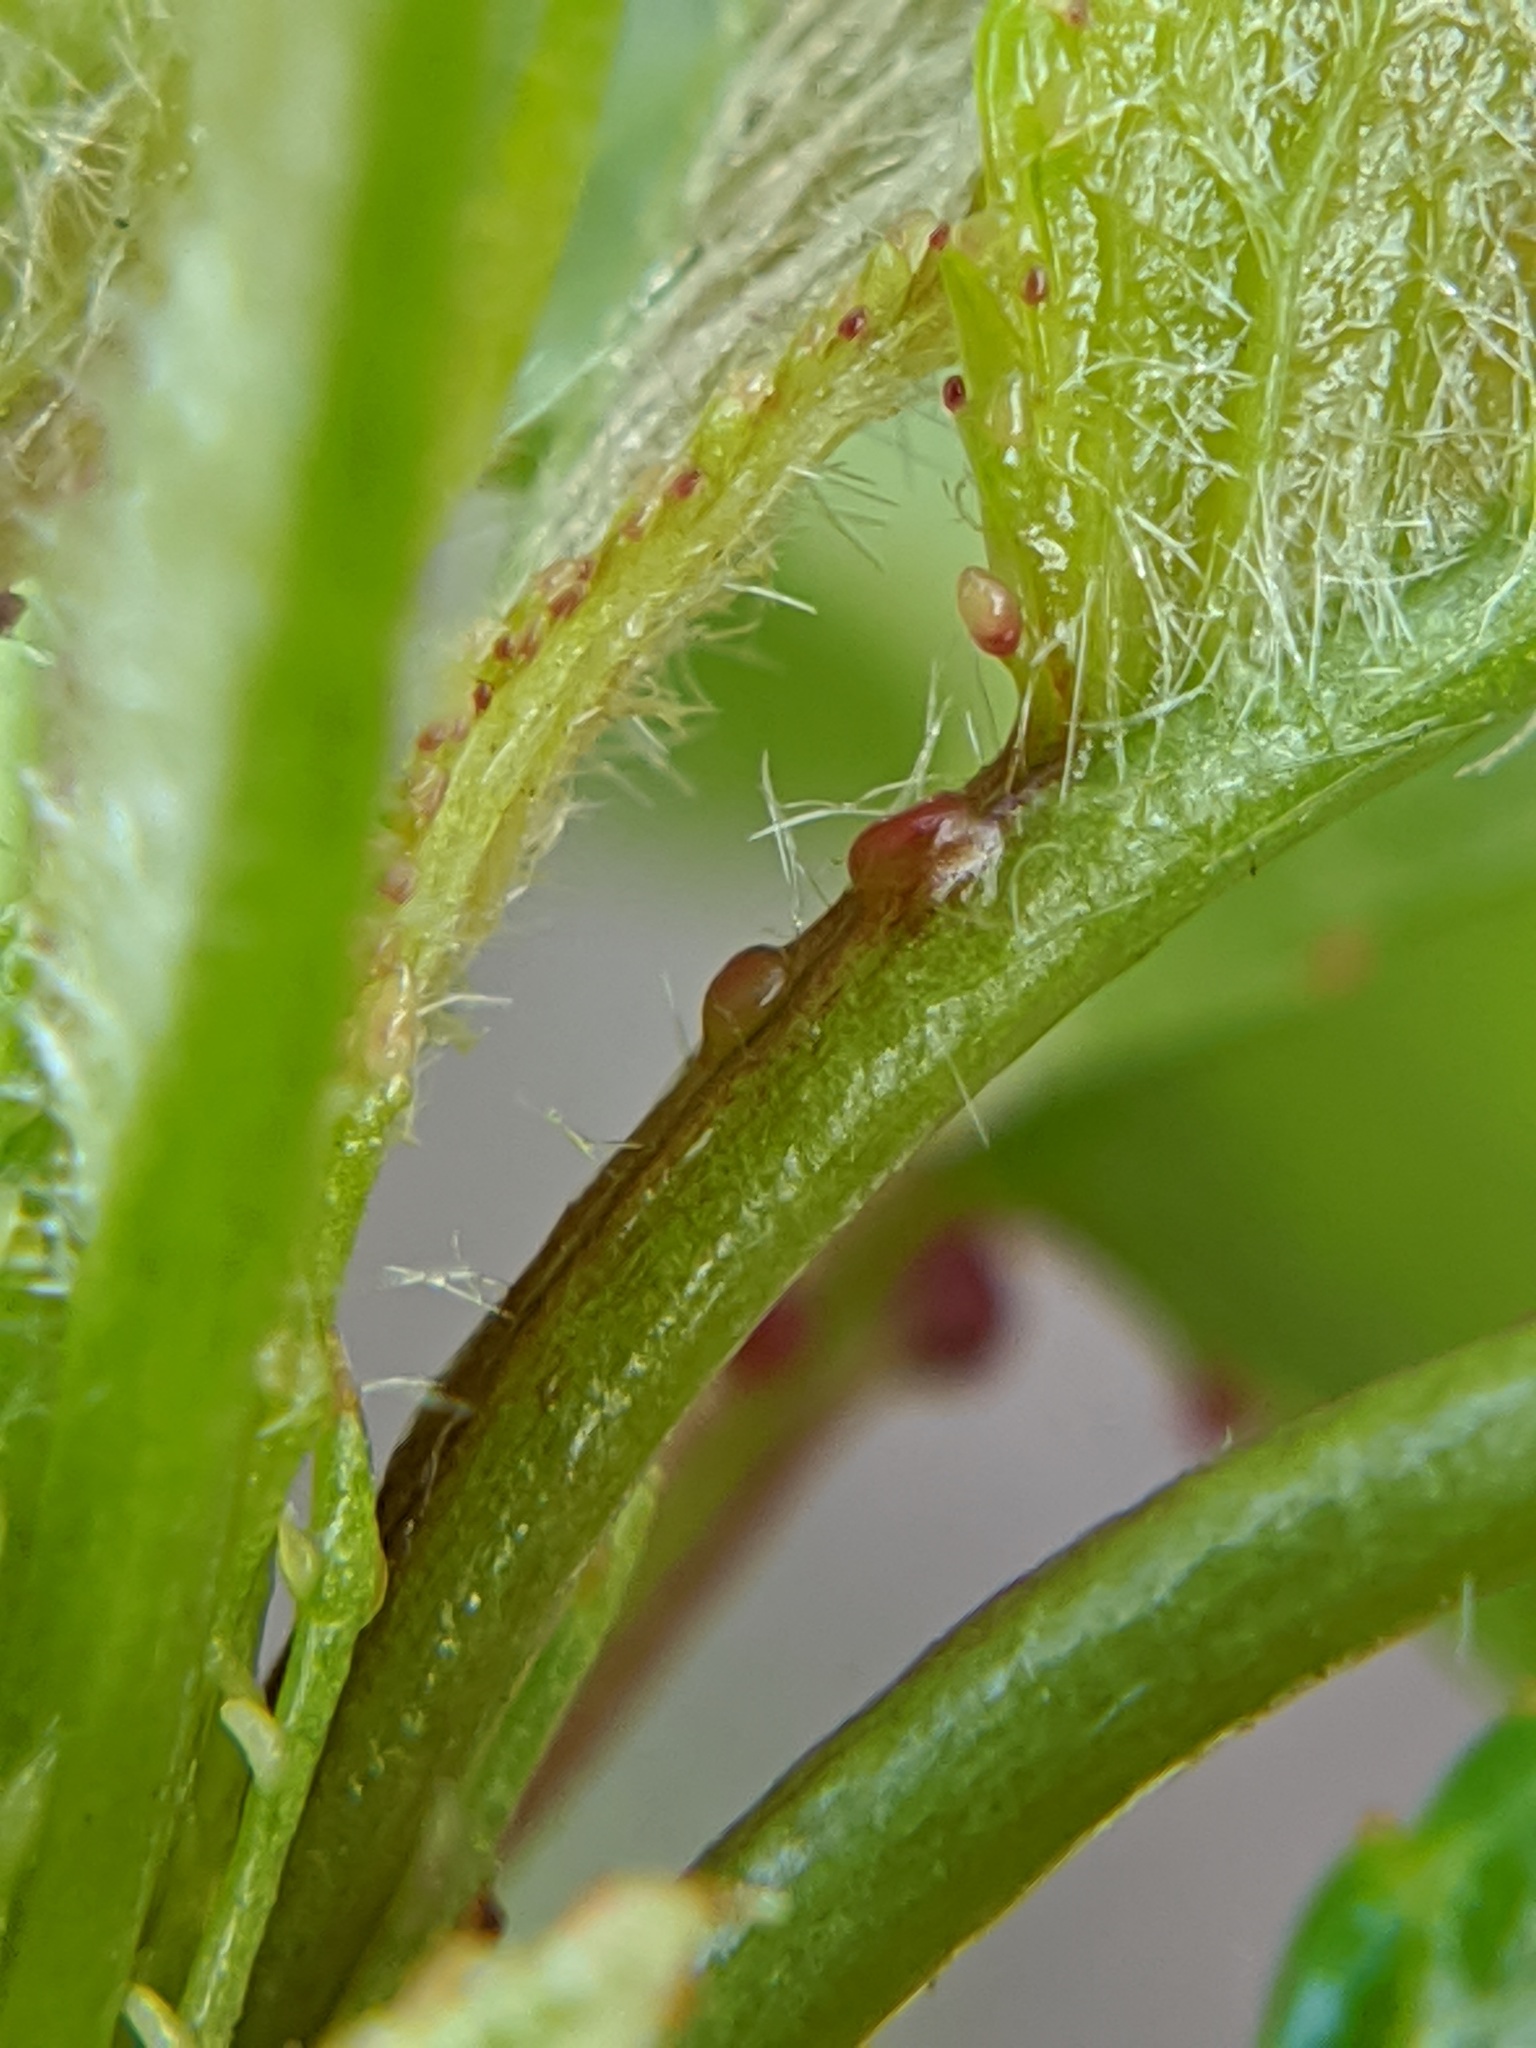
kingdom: Plantae
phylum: Tracheophyta
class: Magnoliopsida
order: Rosales
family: Rosaceae
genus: Prunus
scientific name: Prunus avium
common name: Sweet cherry
